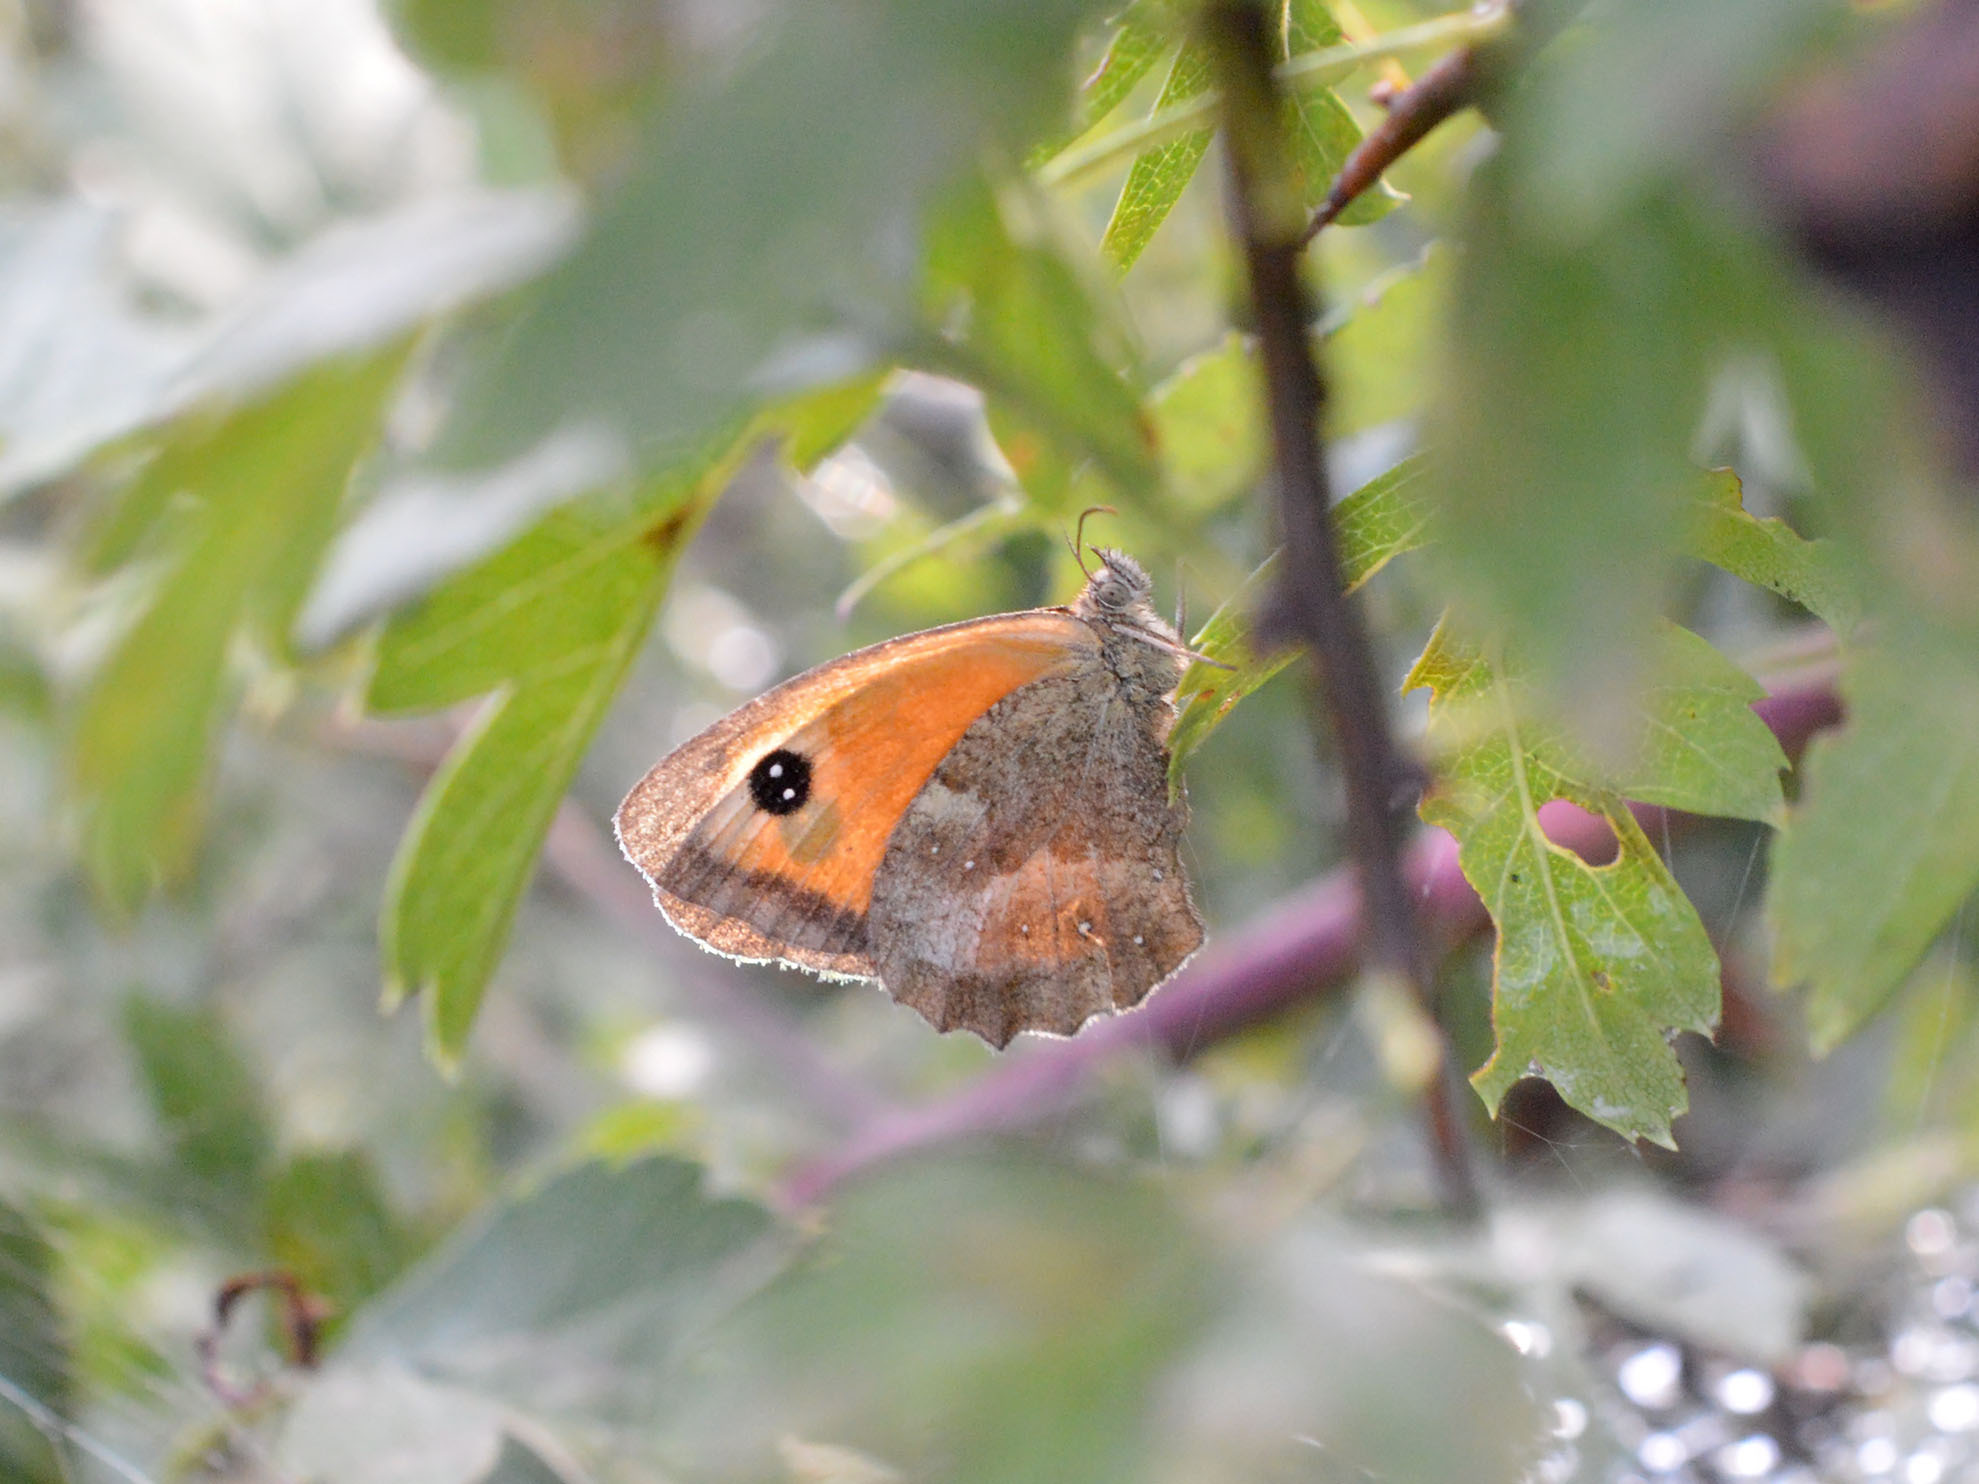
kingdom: Animalia
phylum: Arthropoda
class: Insecta
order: Lepidoptera
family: Nymphalidae
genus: Pyronia
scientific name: Pyronia tithonus
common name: Gatekeeper
